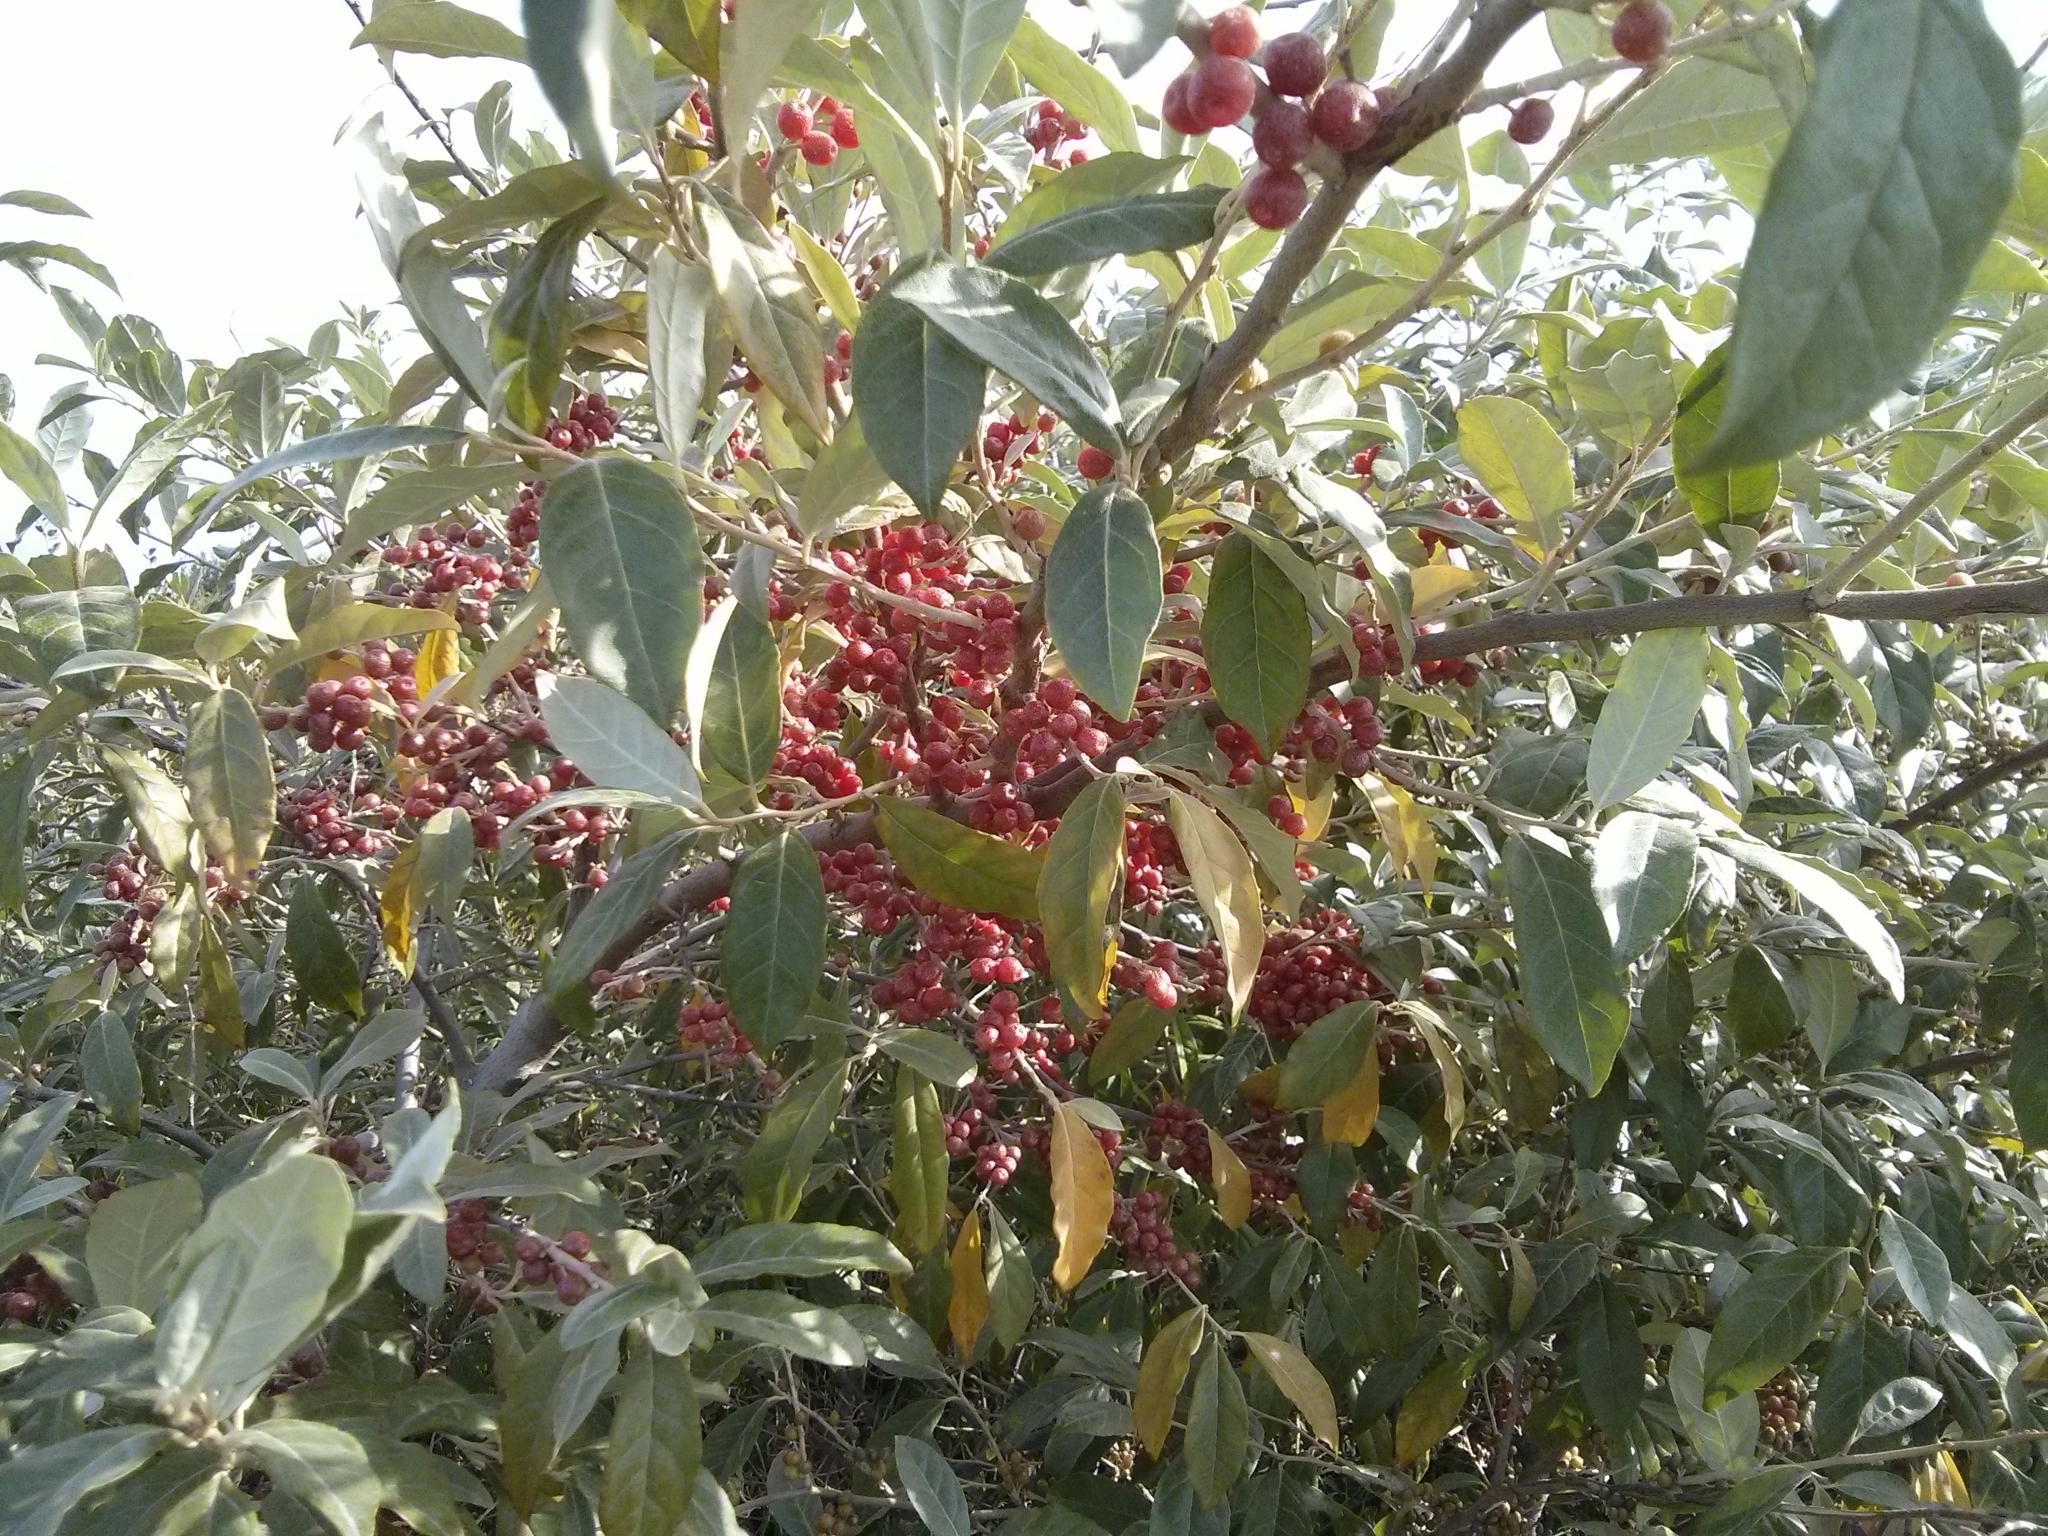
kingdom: Plantae
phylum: Tracheophyta
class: Magnoliopsida
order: Rosales
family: Elaeagnaceae
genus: Elaeagnus
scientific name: Elaeagnus umbellata
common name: Autumn olive
